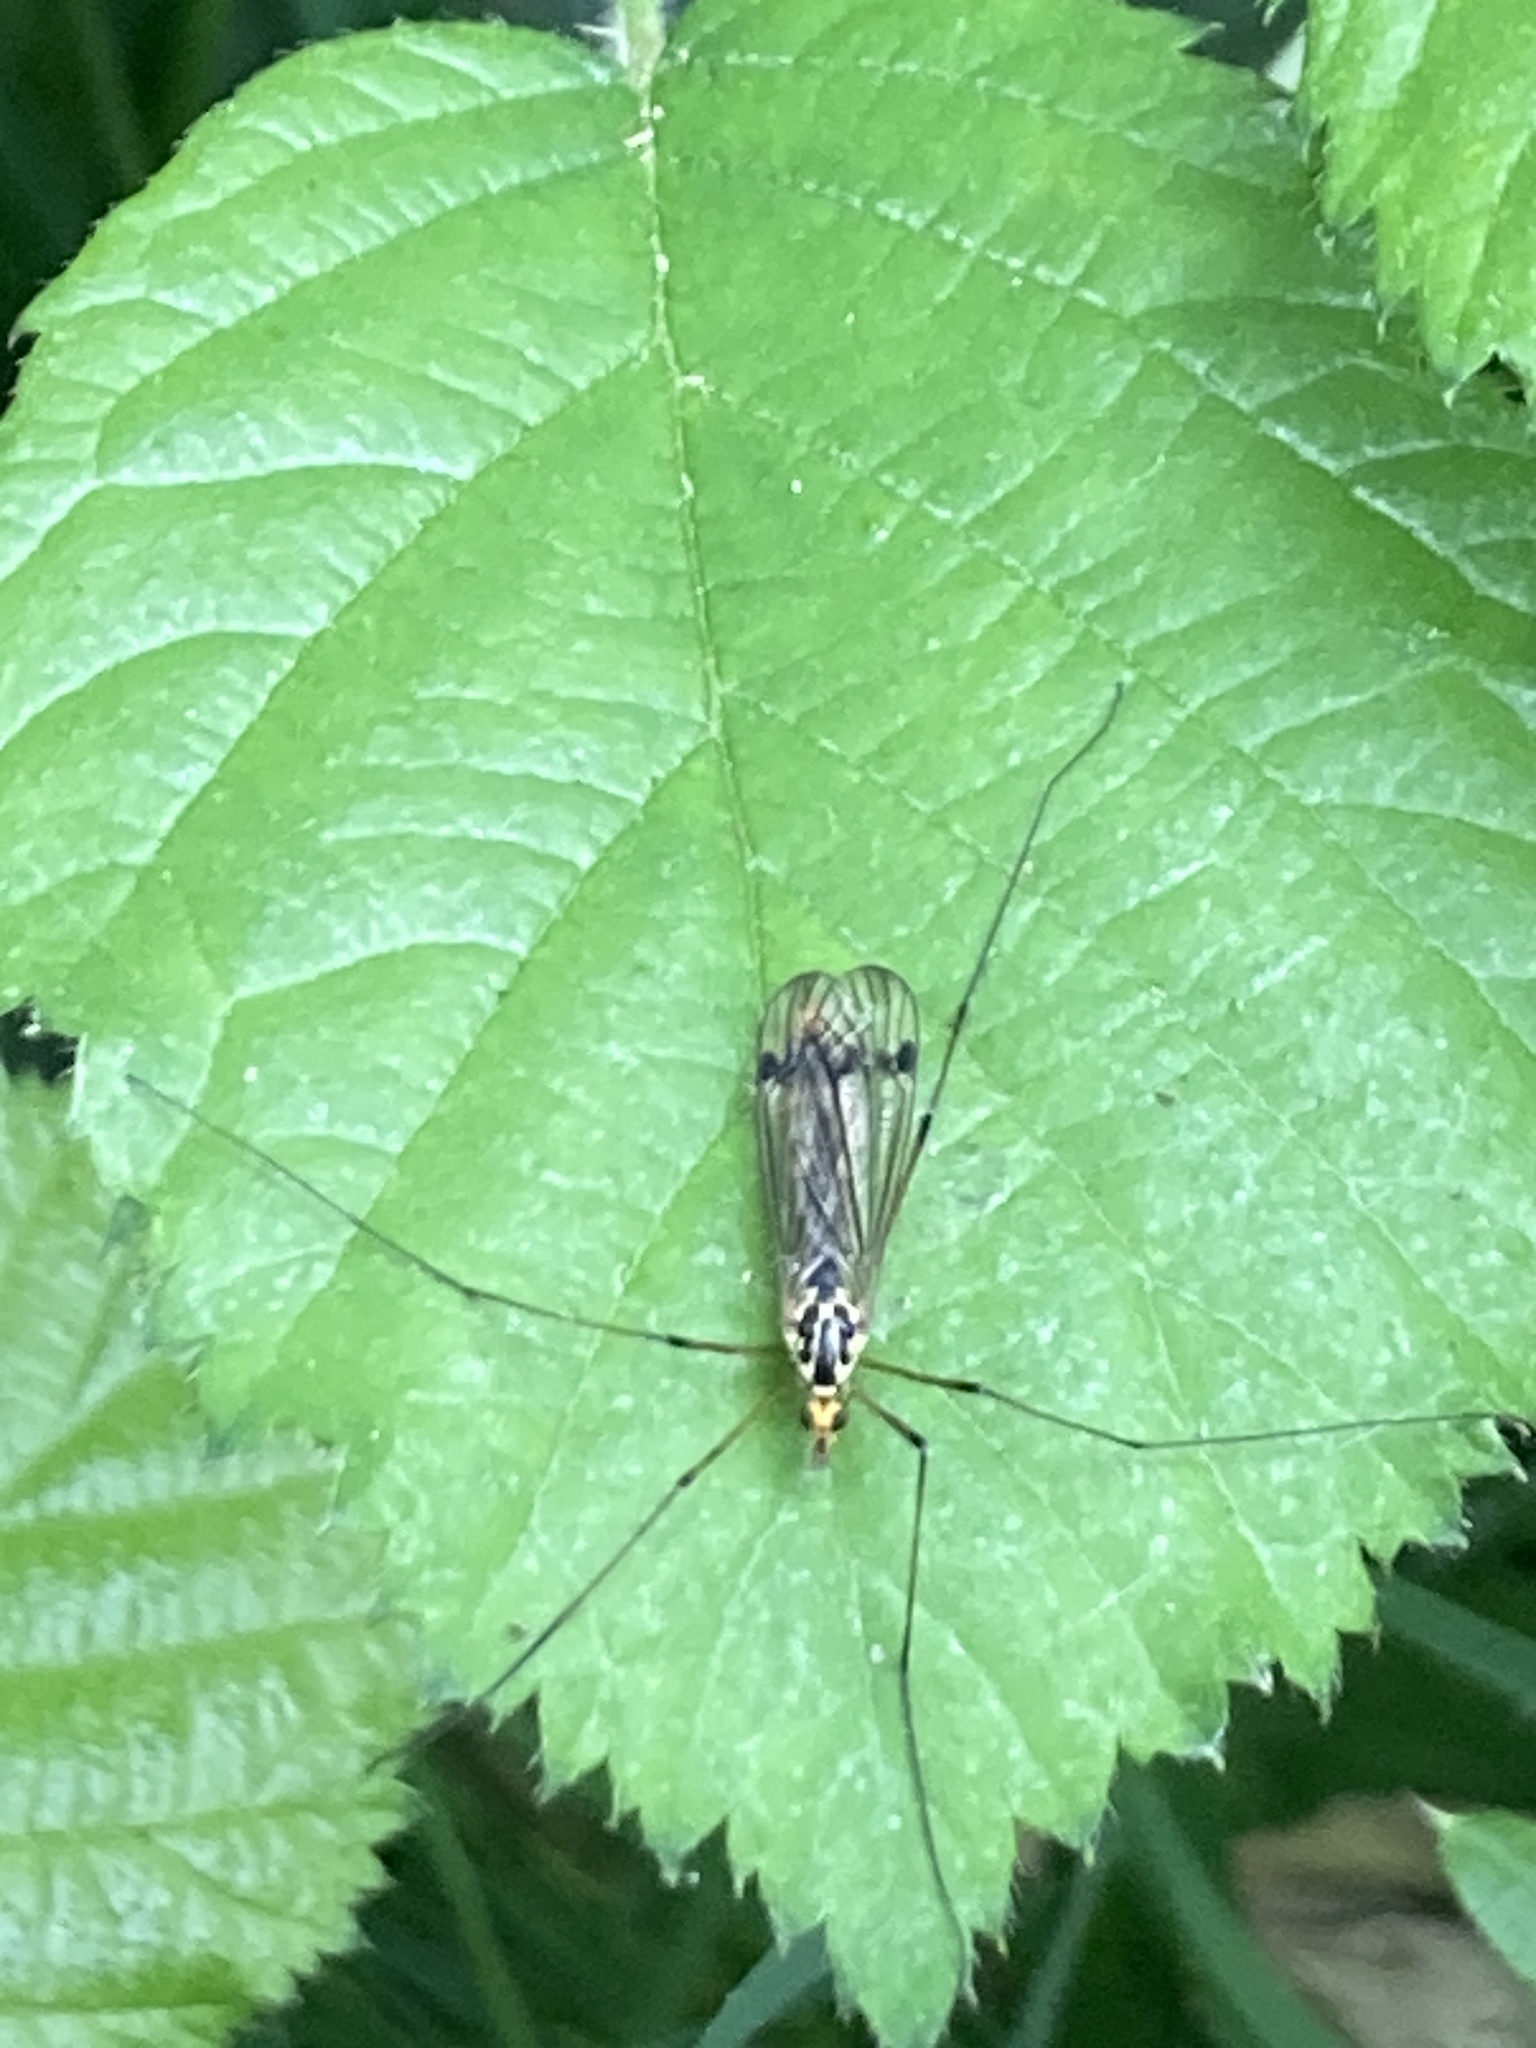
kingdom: Animalia
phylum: Arthropoda
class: Insecta
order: Diptera
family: Tipulidae
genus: Nephrotoma
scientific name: Nephrotoma quadrifaria
